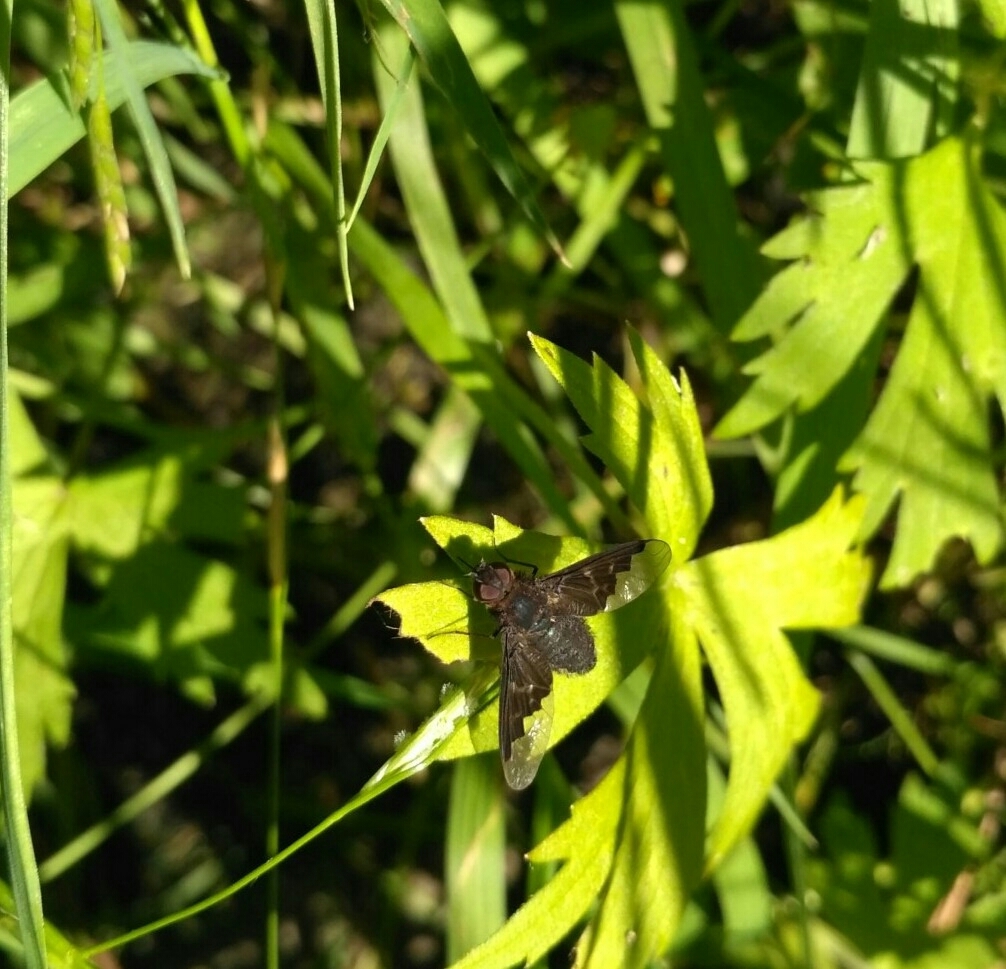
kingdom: Animalia
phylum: Arthropoda
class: Insecta
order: Diptera
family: Bombyliidae
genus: Hemipenthes
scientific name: Hemipenthes morio
